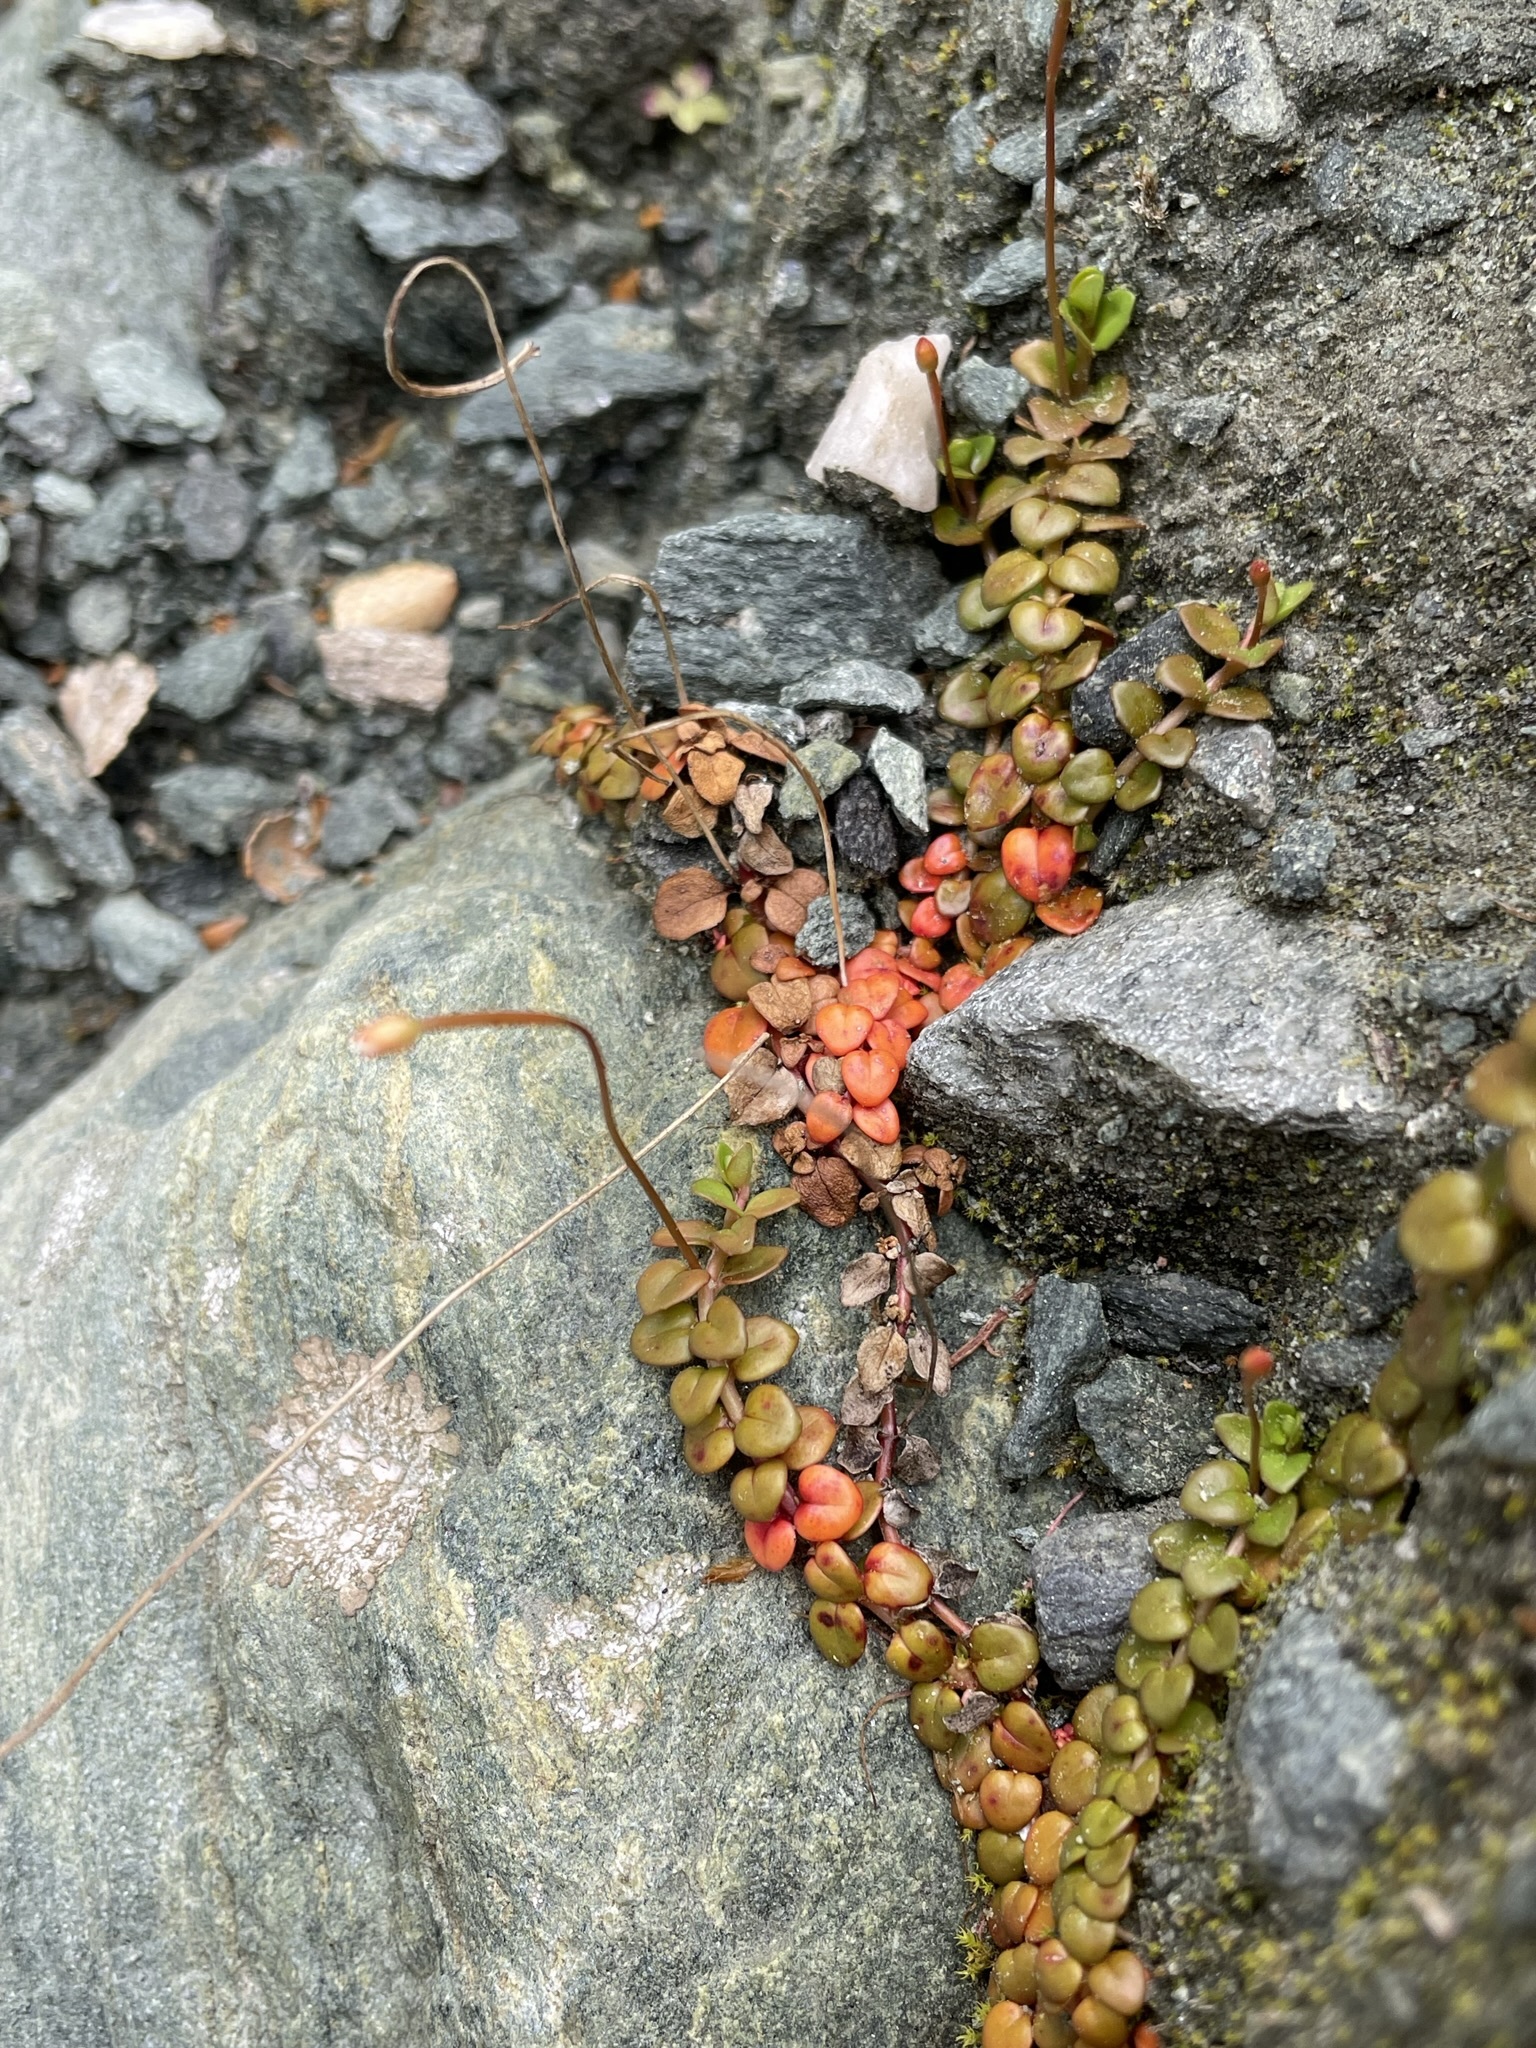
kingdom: Plantae
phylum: Tracheophyta
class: Magnoliopsida
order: Myrtales
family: Onagraceae
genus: Epilobium
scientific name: Epilobium brunnescens
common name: New zealand willowherb
